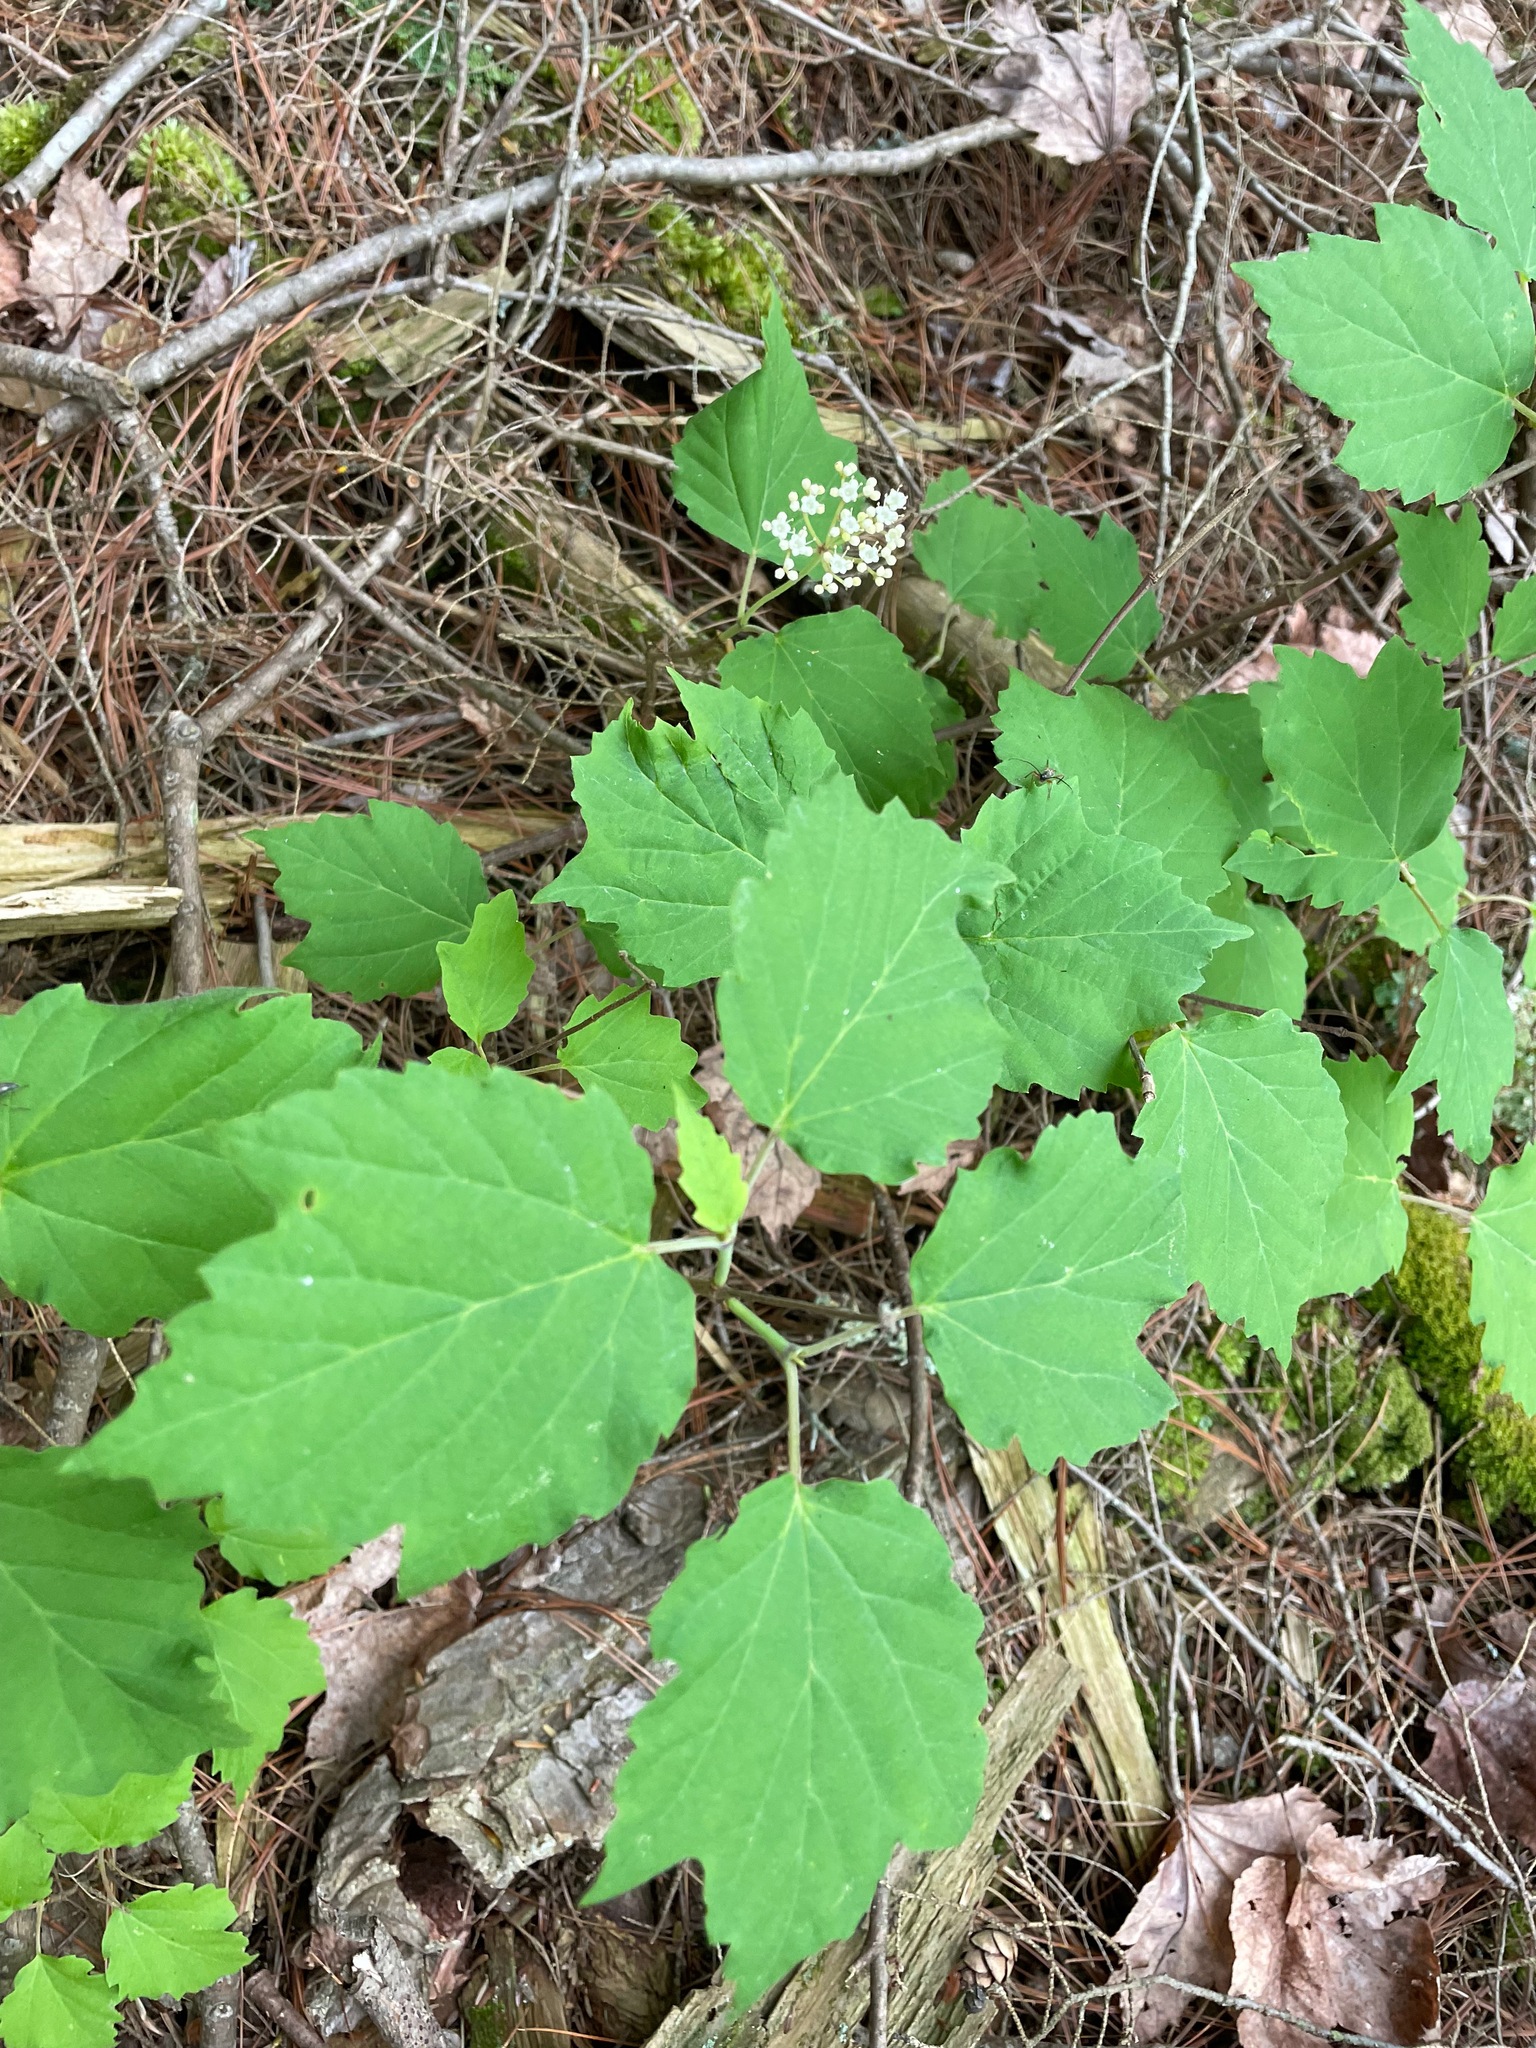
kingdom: Plantae
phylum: Tracheophyta
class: Magnoliopsida
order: Dipsacales
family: Viburnaceae
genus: Viburnum
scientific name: Viburnum acerifolium
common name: Dockmackie
